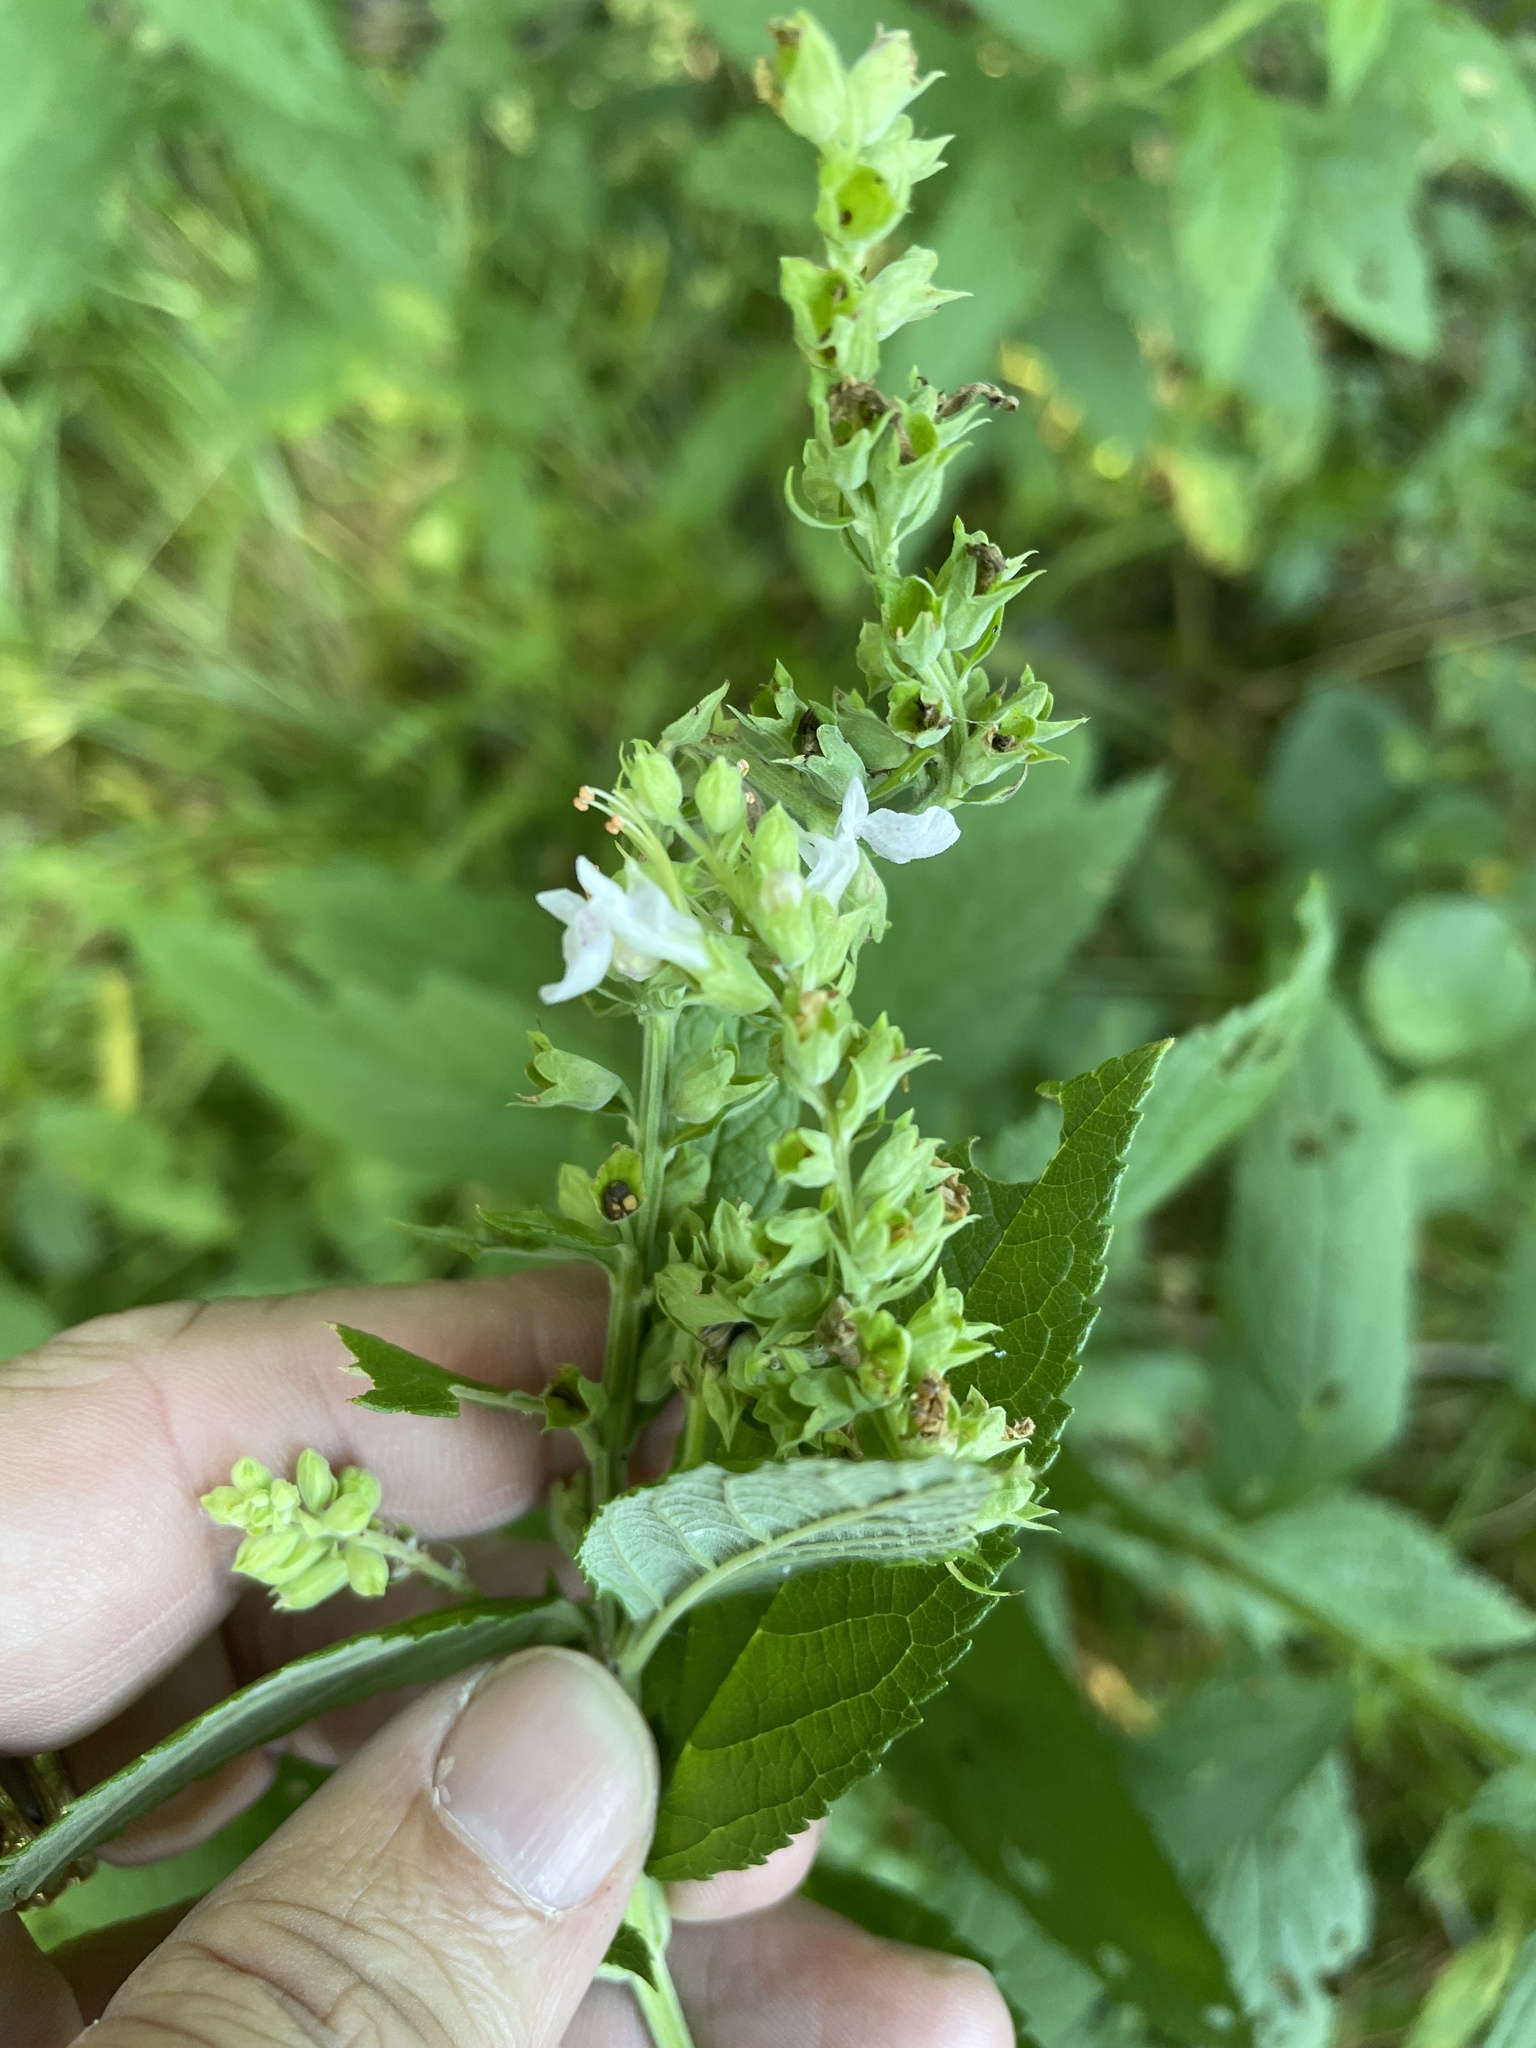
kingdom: Plantae
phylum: Tracheophyta
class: Magnoliopsida
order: Lamiales
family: Lamiaceae
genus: Teucrium
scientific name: Teucrium canadense
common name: American germander
